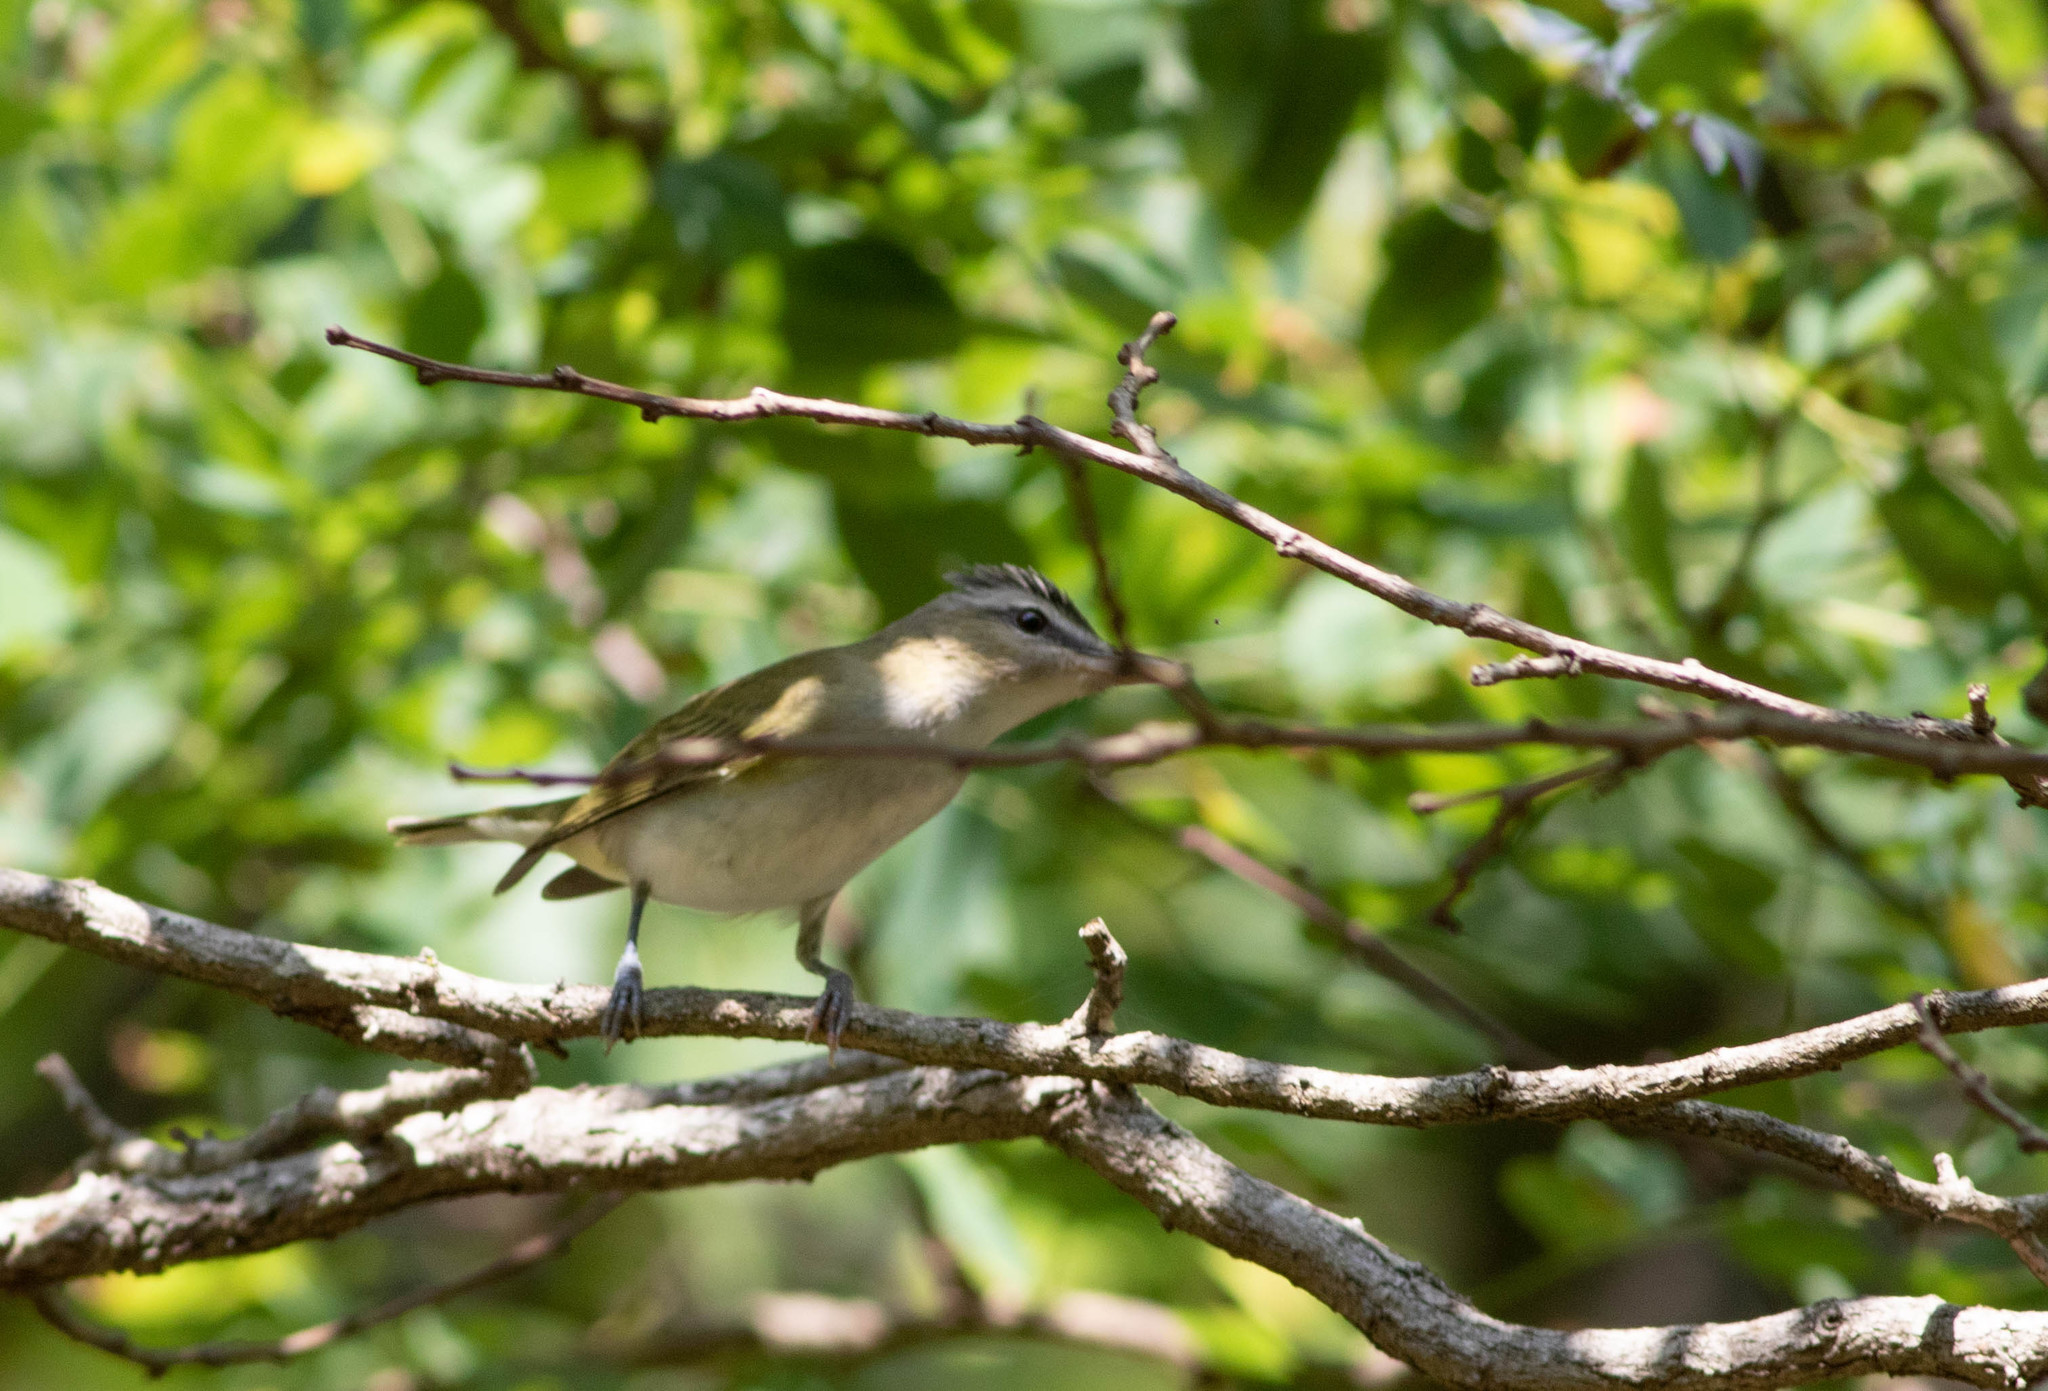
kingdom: Animalia
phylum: Chordata
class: Aves
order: Passeriformes
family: Vireonidae
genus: Vireo
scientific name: Vireo olivaceus
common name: Red-eyed vireo
